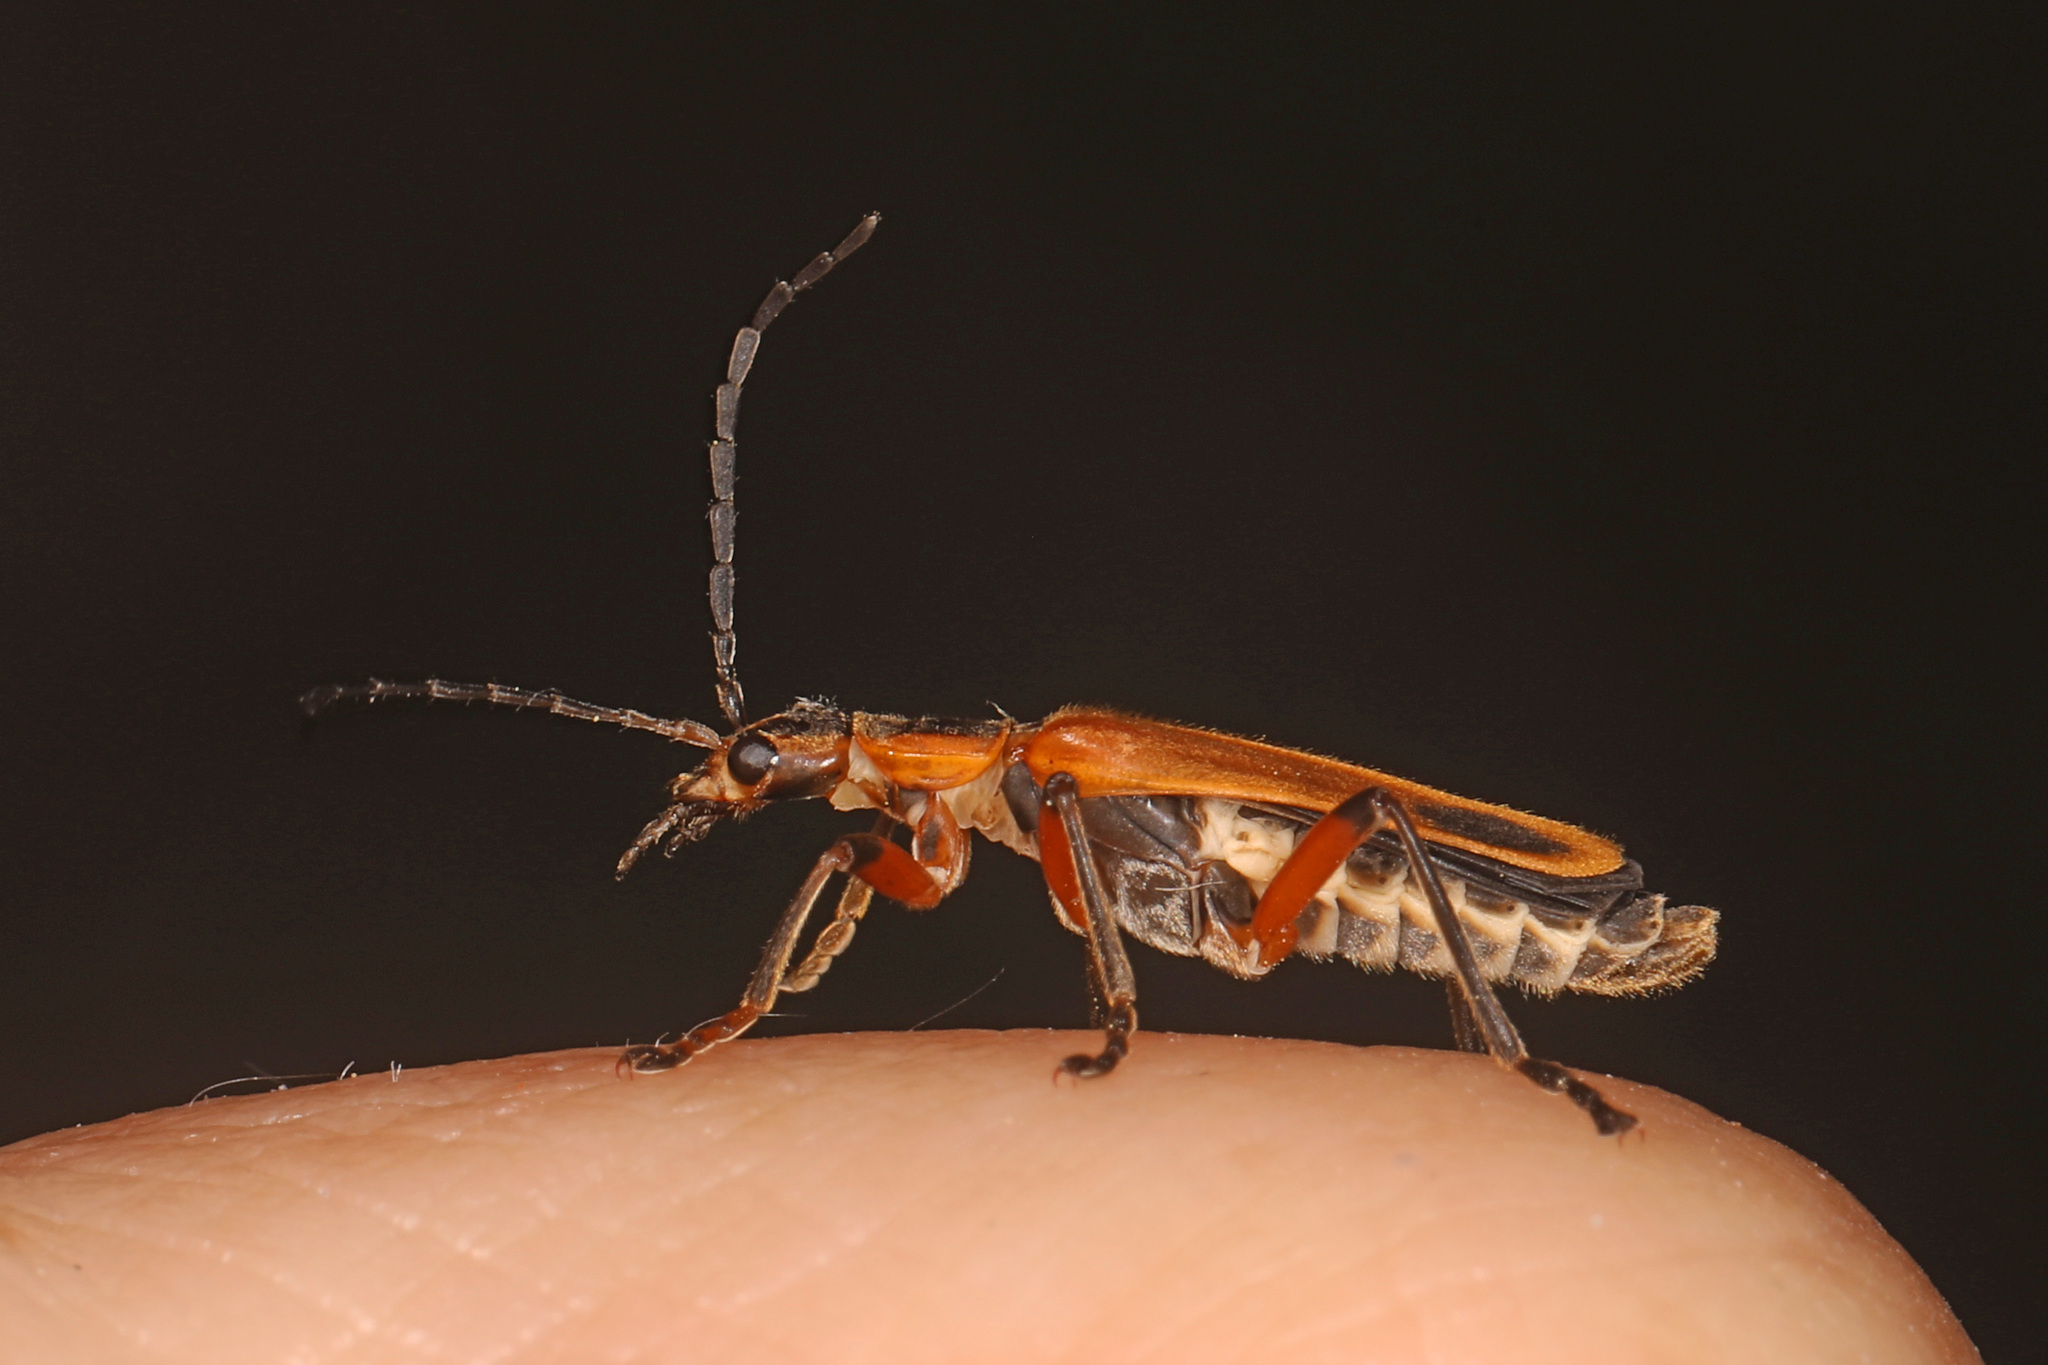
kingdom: Animalia
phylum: Arthropoda
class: Insecta
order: Coleoptera
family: Cantharidae
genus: Chauliognathus
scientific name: Chauliognathus marginatus
